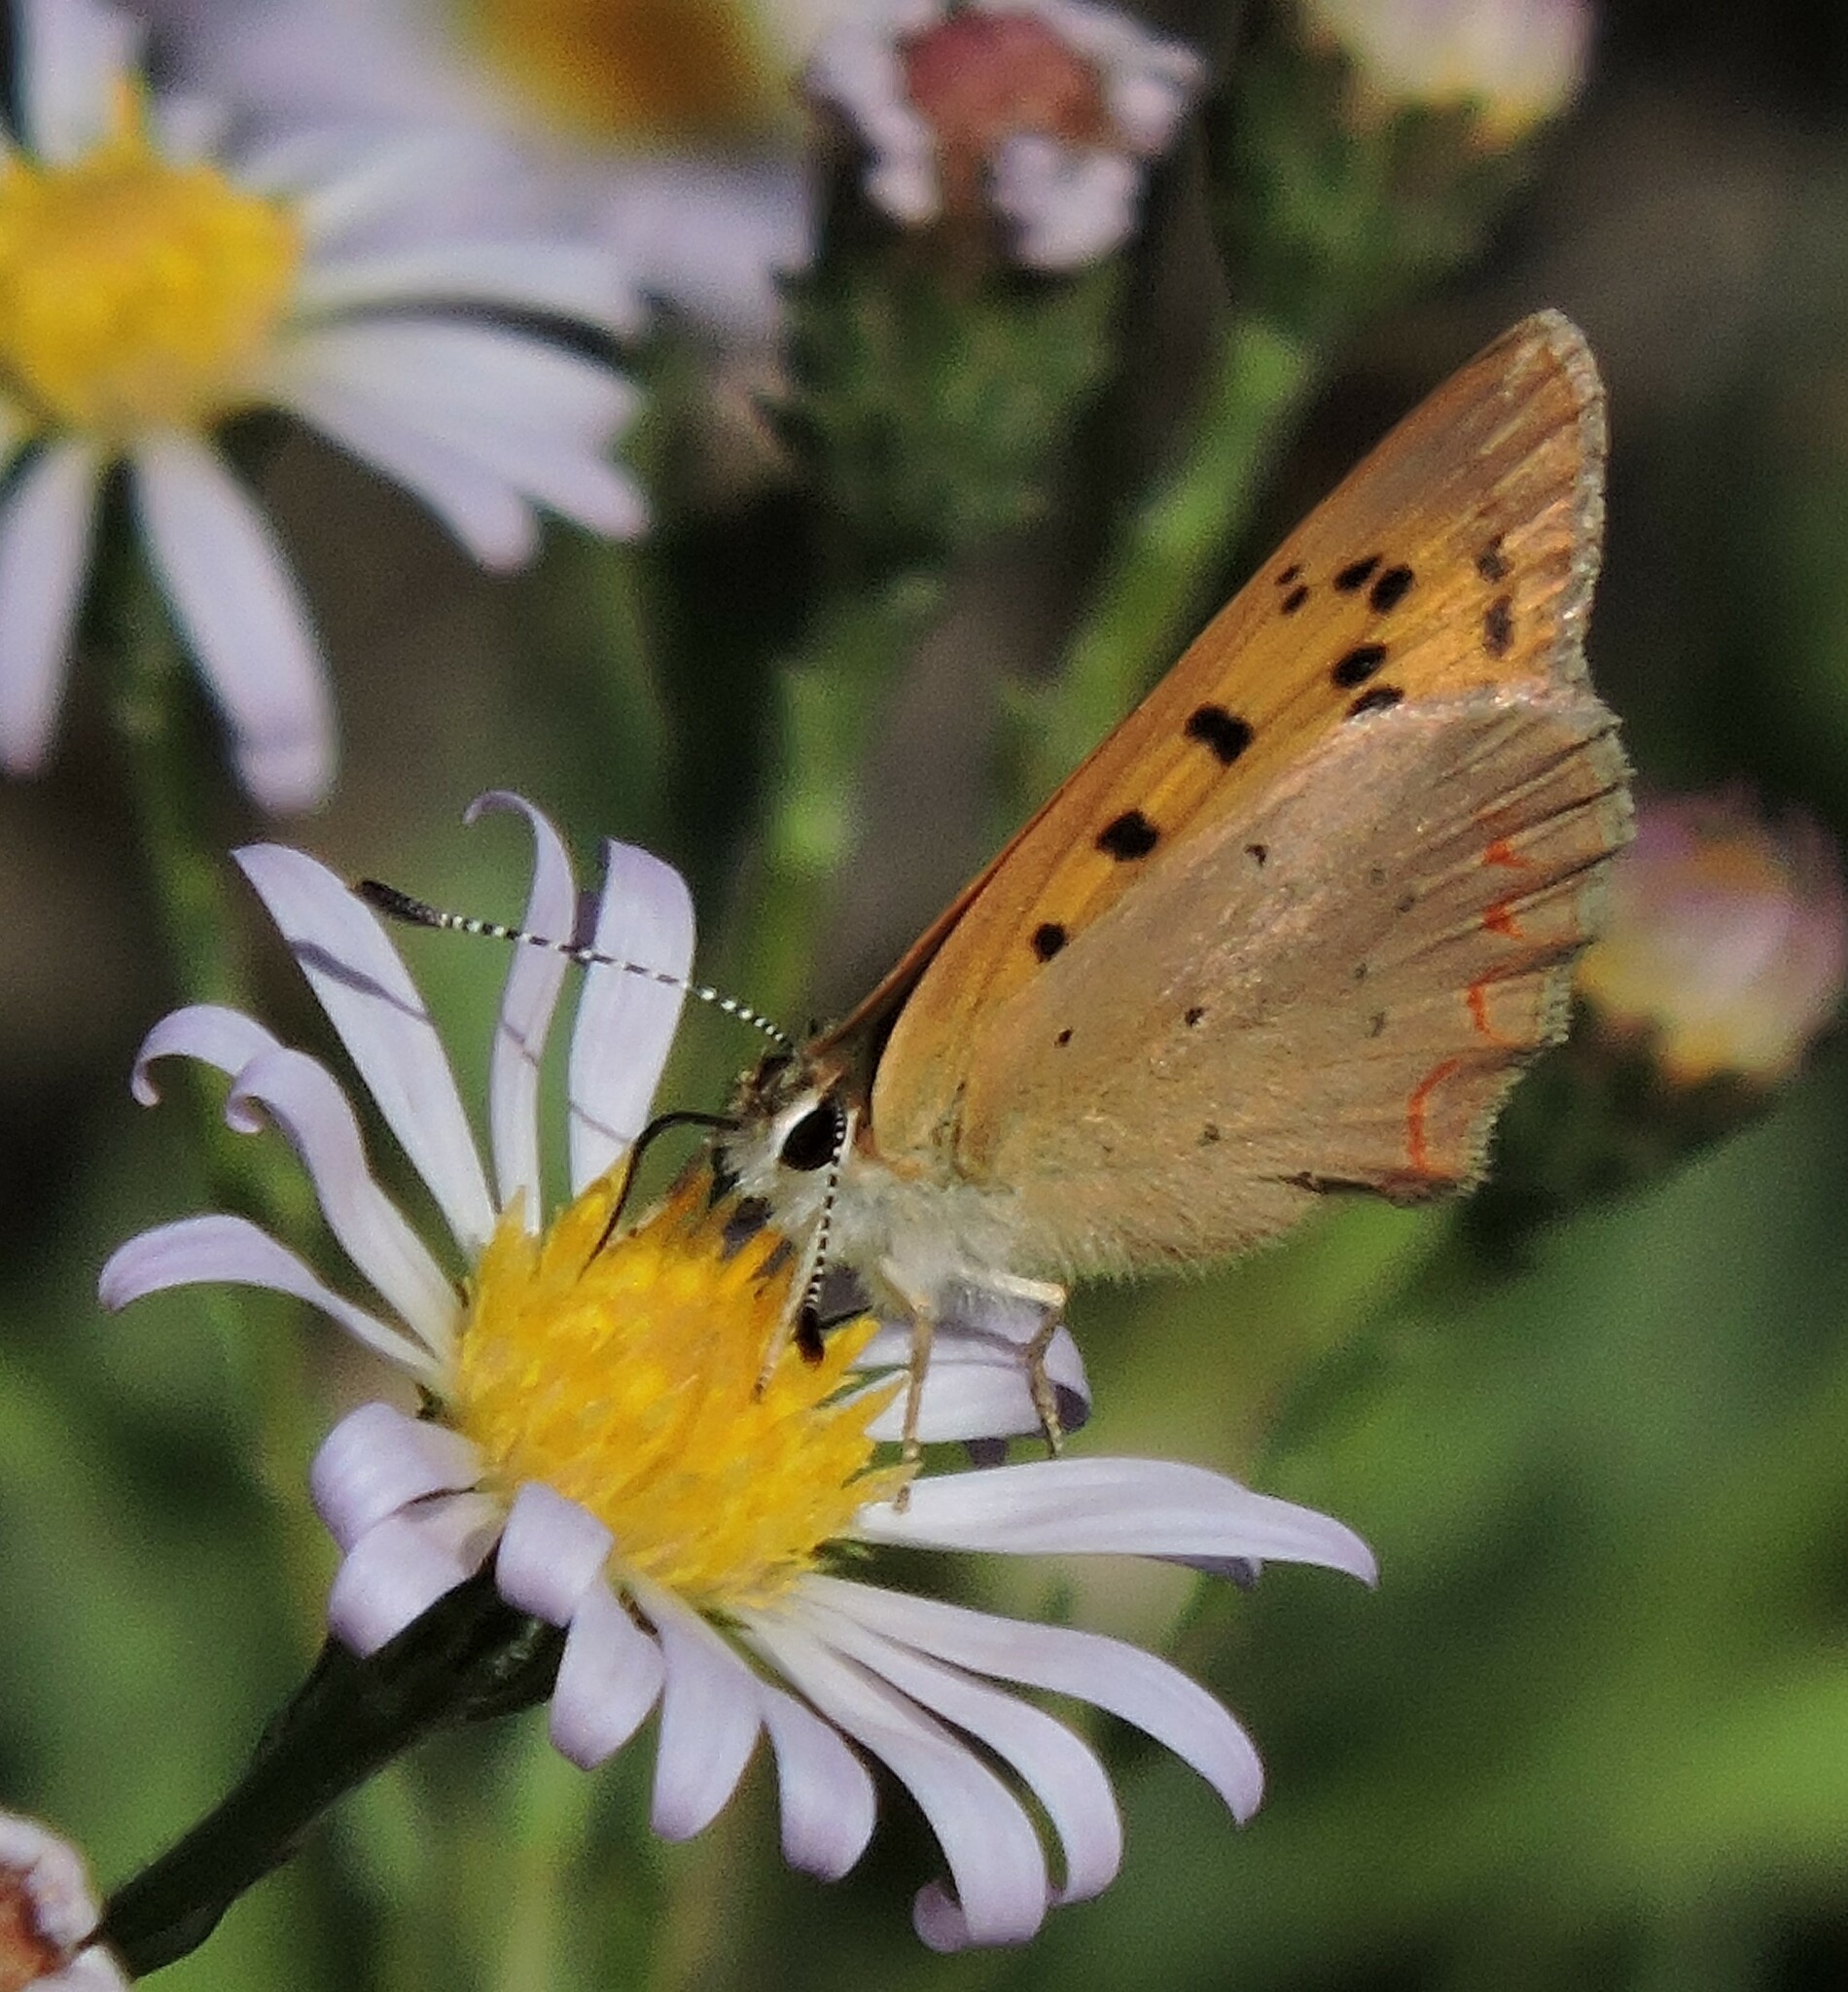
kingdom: Animalia
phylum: Arthropoda
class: Insecta
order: Lepidoptera
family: Lycaenidae
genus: Tharsalea
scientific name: Tharsalea helloides
